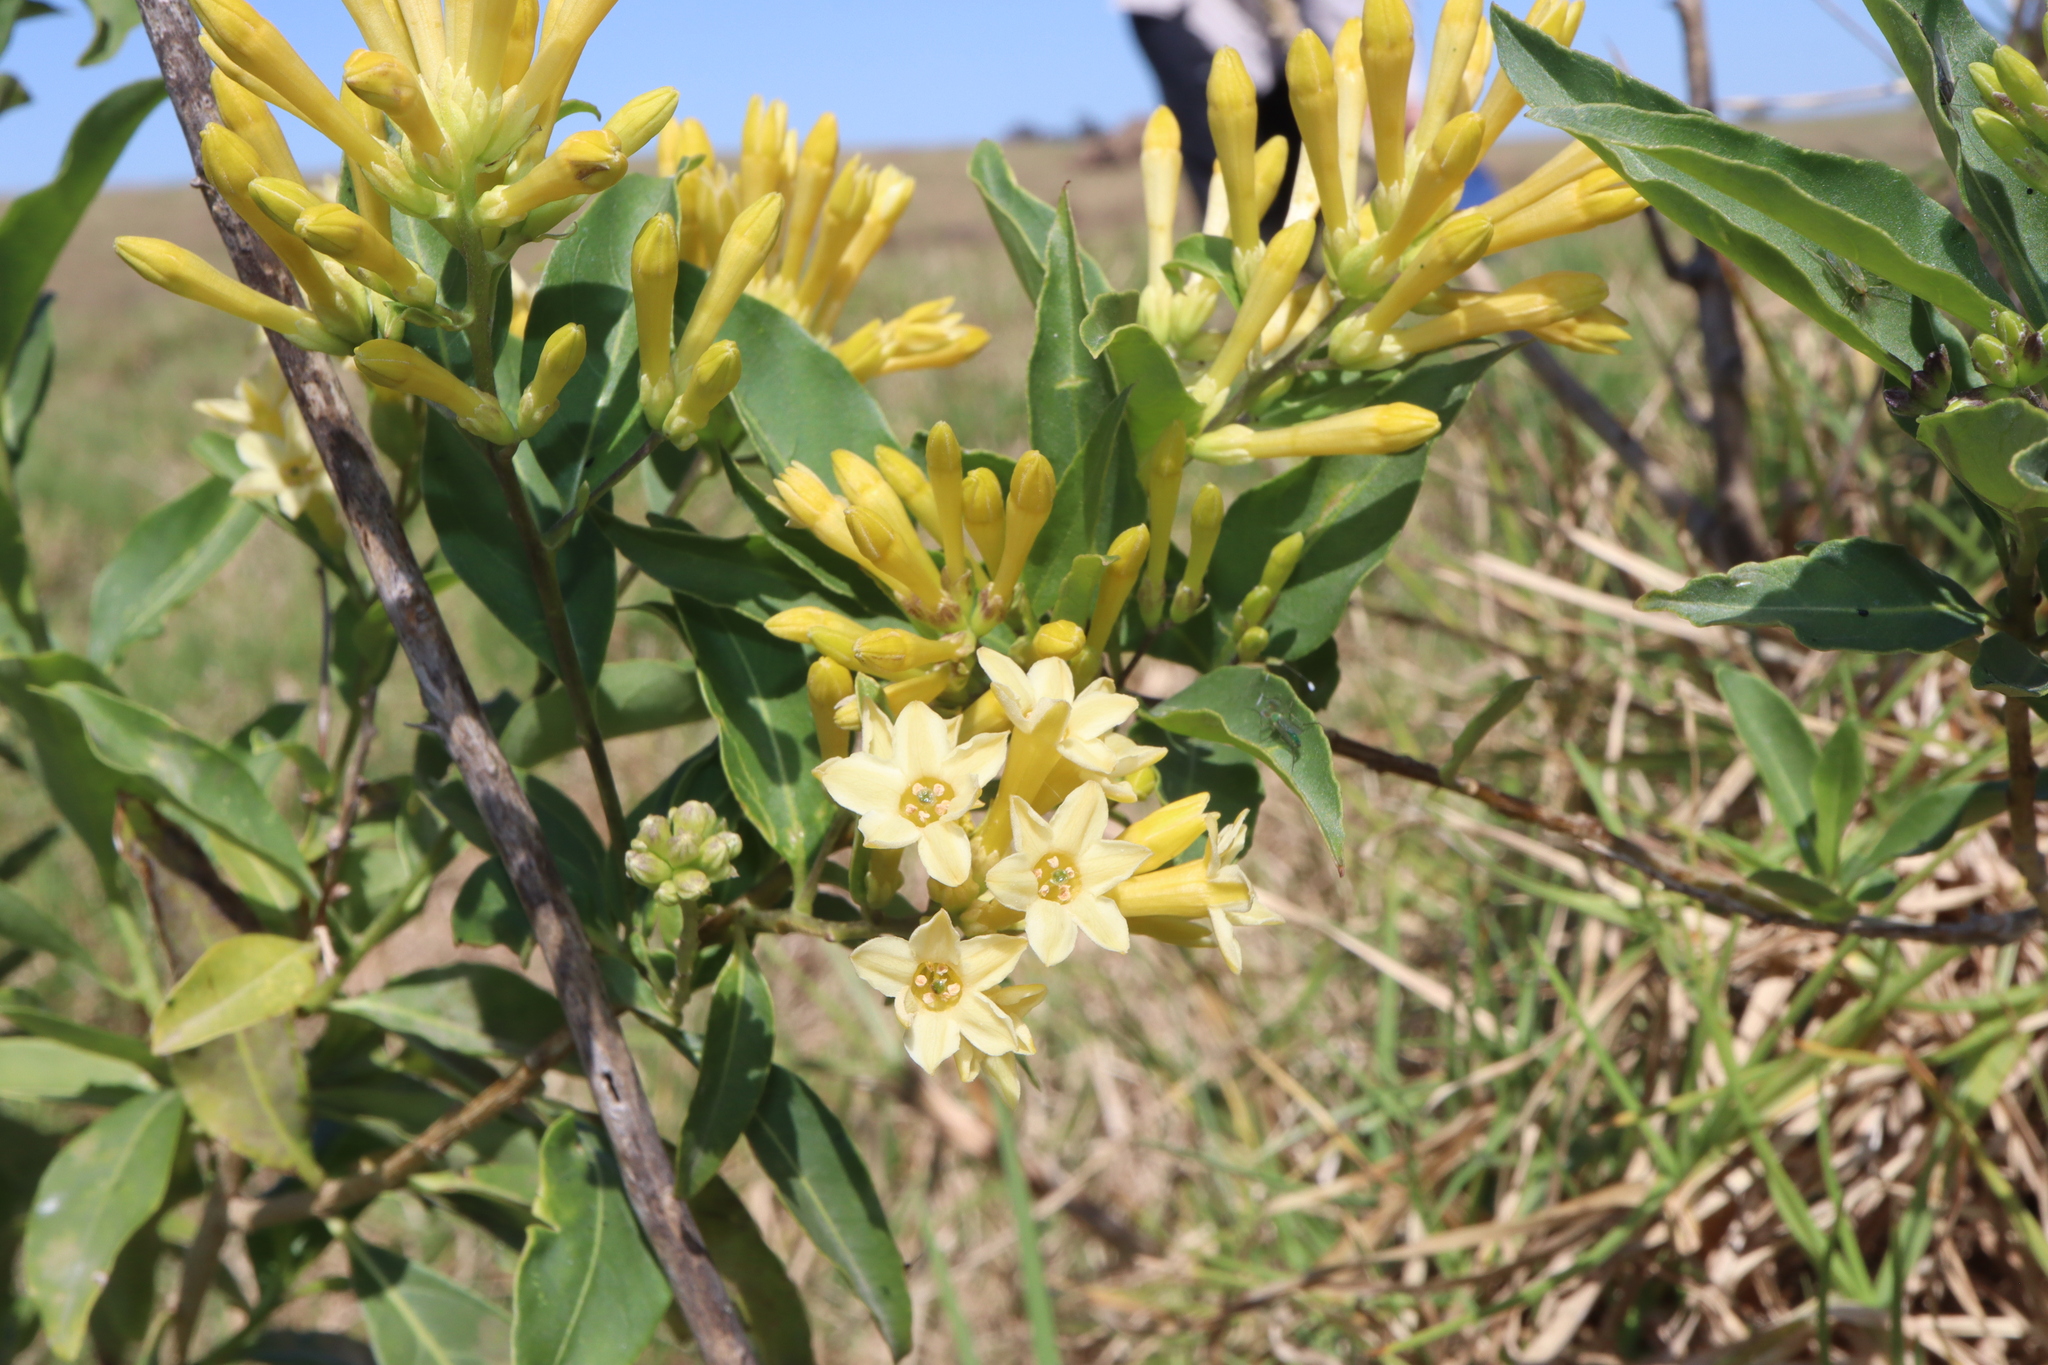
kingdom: Plantae
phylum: Tracheophyta
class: Magnoliopsida
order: Solanales
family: Solanaceae
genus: Cestrum
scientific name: Cestrum parqui
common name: Chilean cestrum
